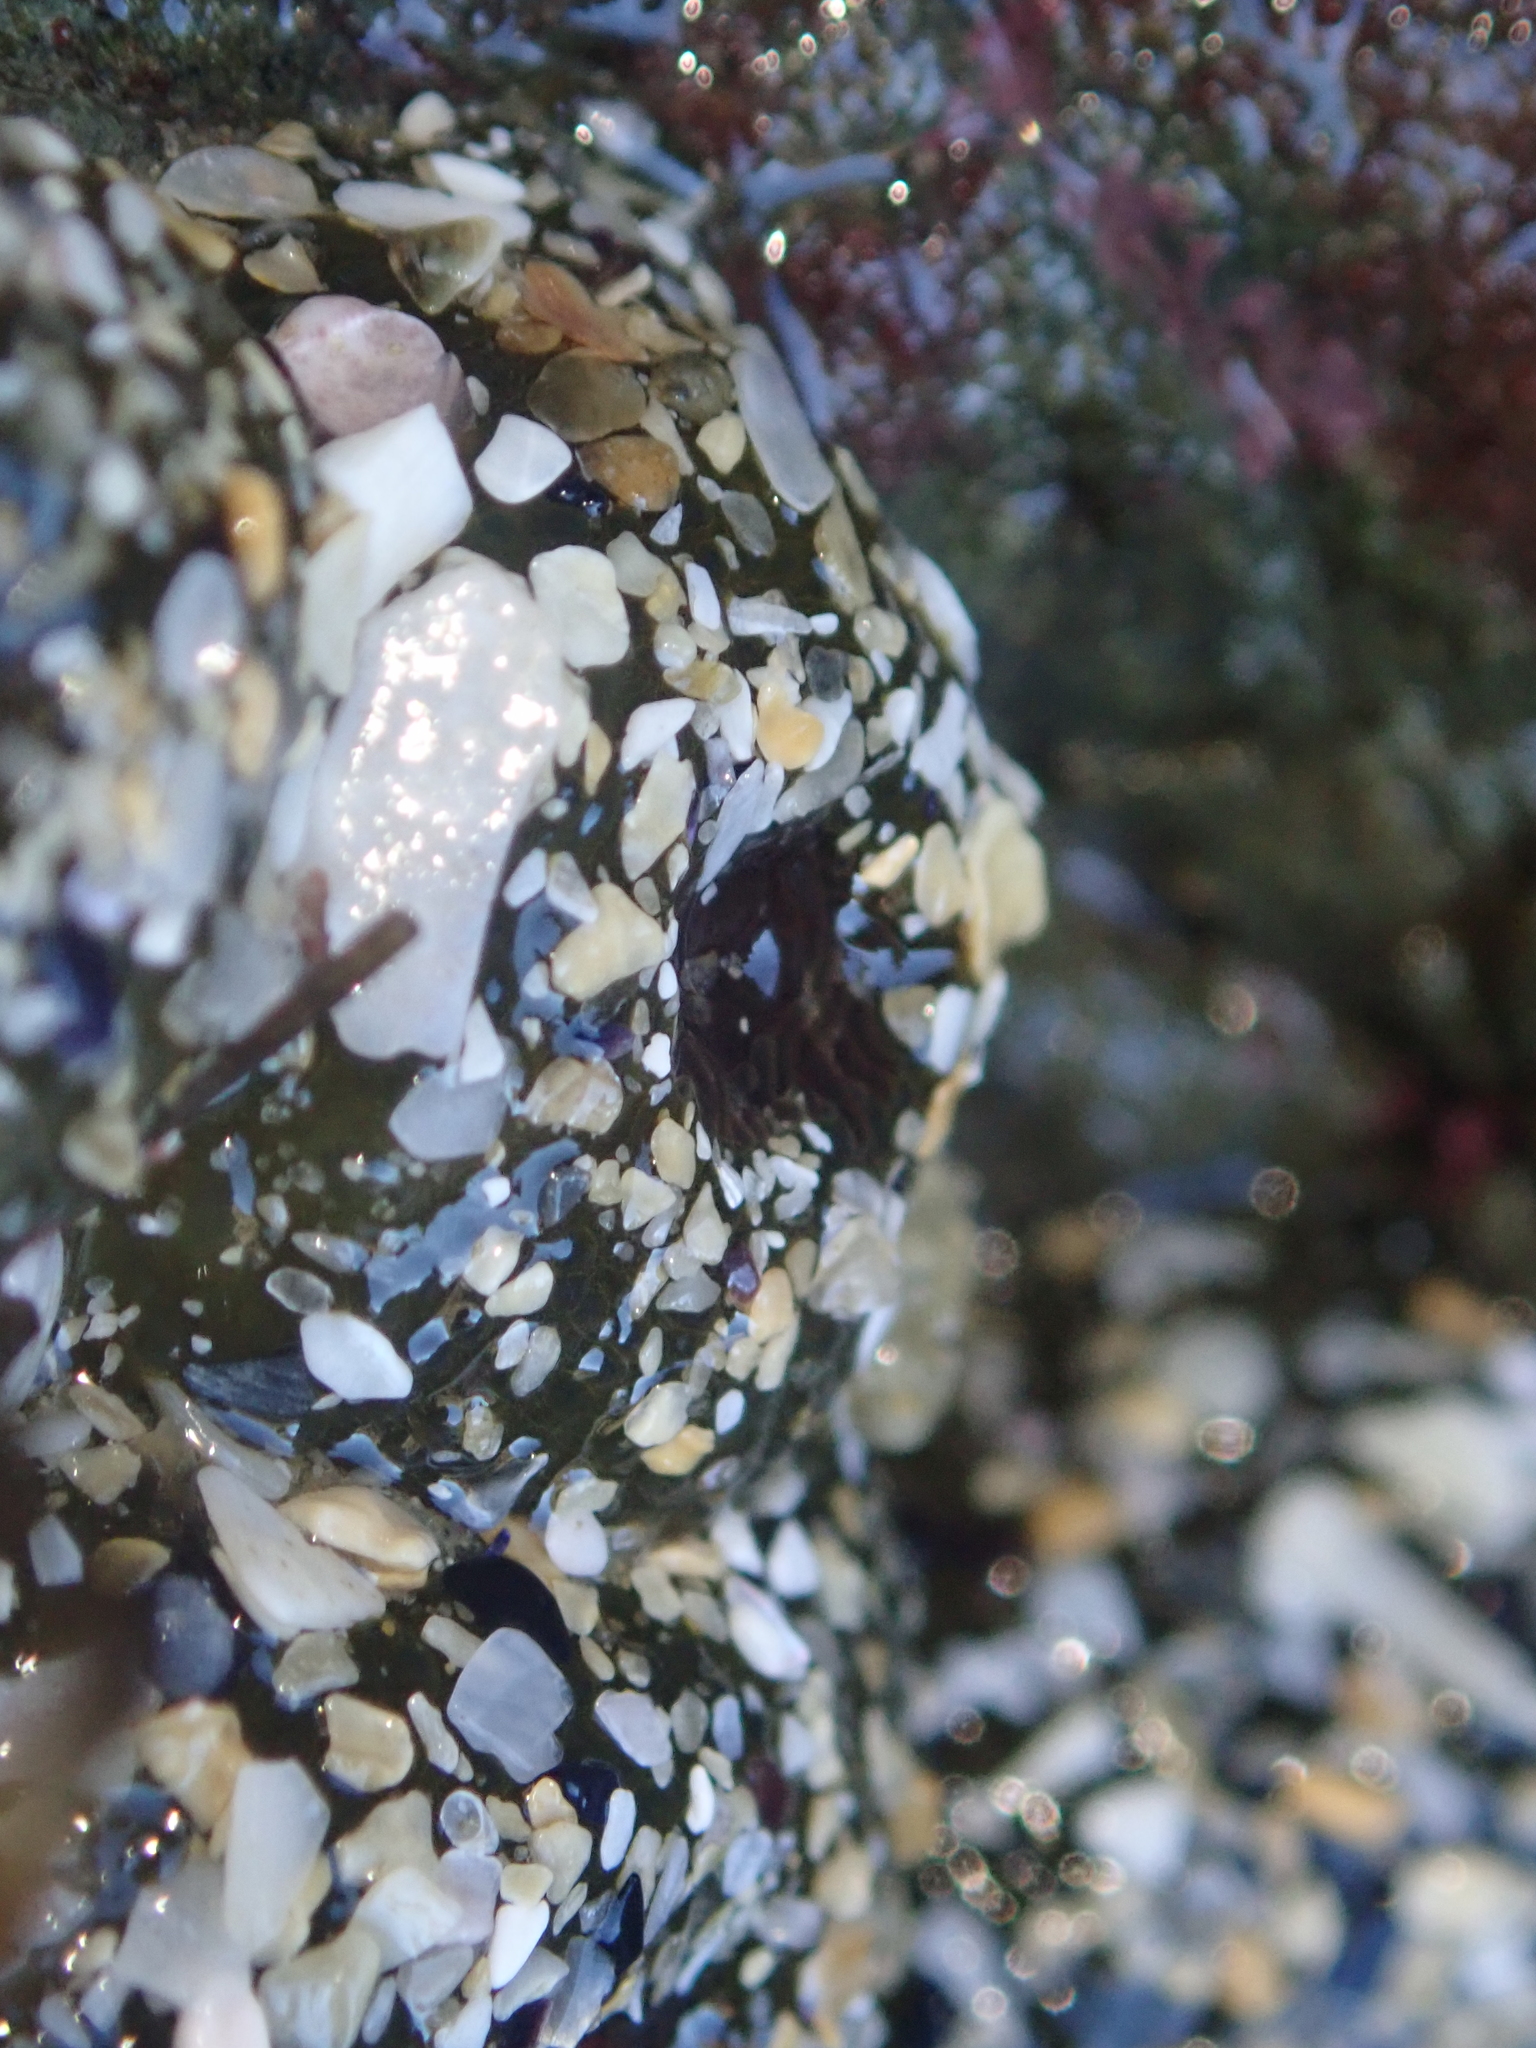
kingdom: Animalia
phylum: Cnidaria
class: Anthozoa
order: Actiniaria
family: Actiniidae
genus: Isactinia
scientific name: Isactinia olivacea
